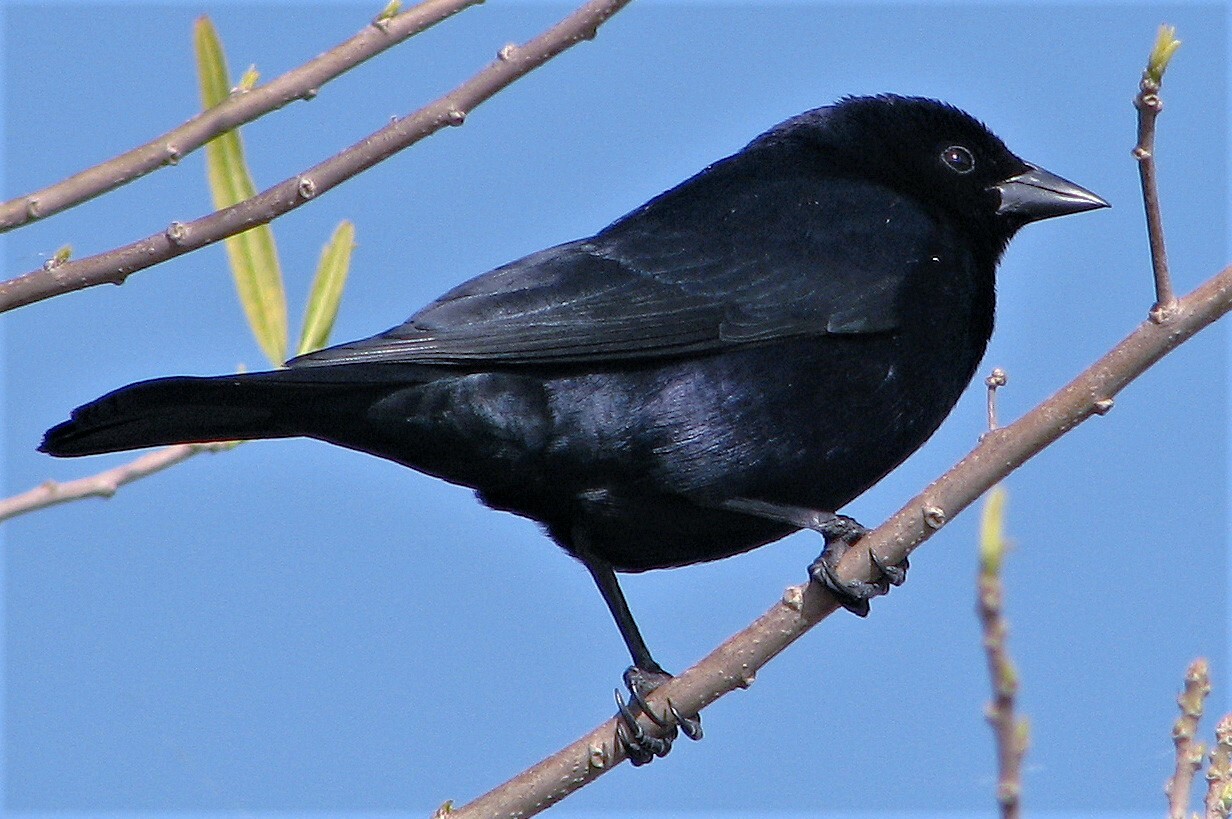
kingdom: Animalia
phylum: Chordata
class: Aves
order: Passeriformes
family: Icteridae
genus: Molothrus
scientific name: Molothrus bonariensis
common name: Shiny cowbird
